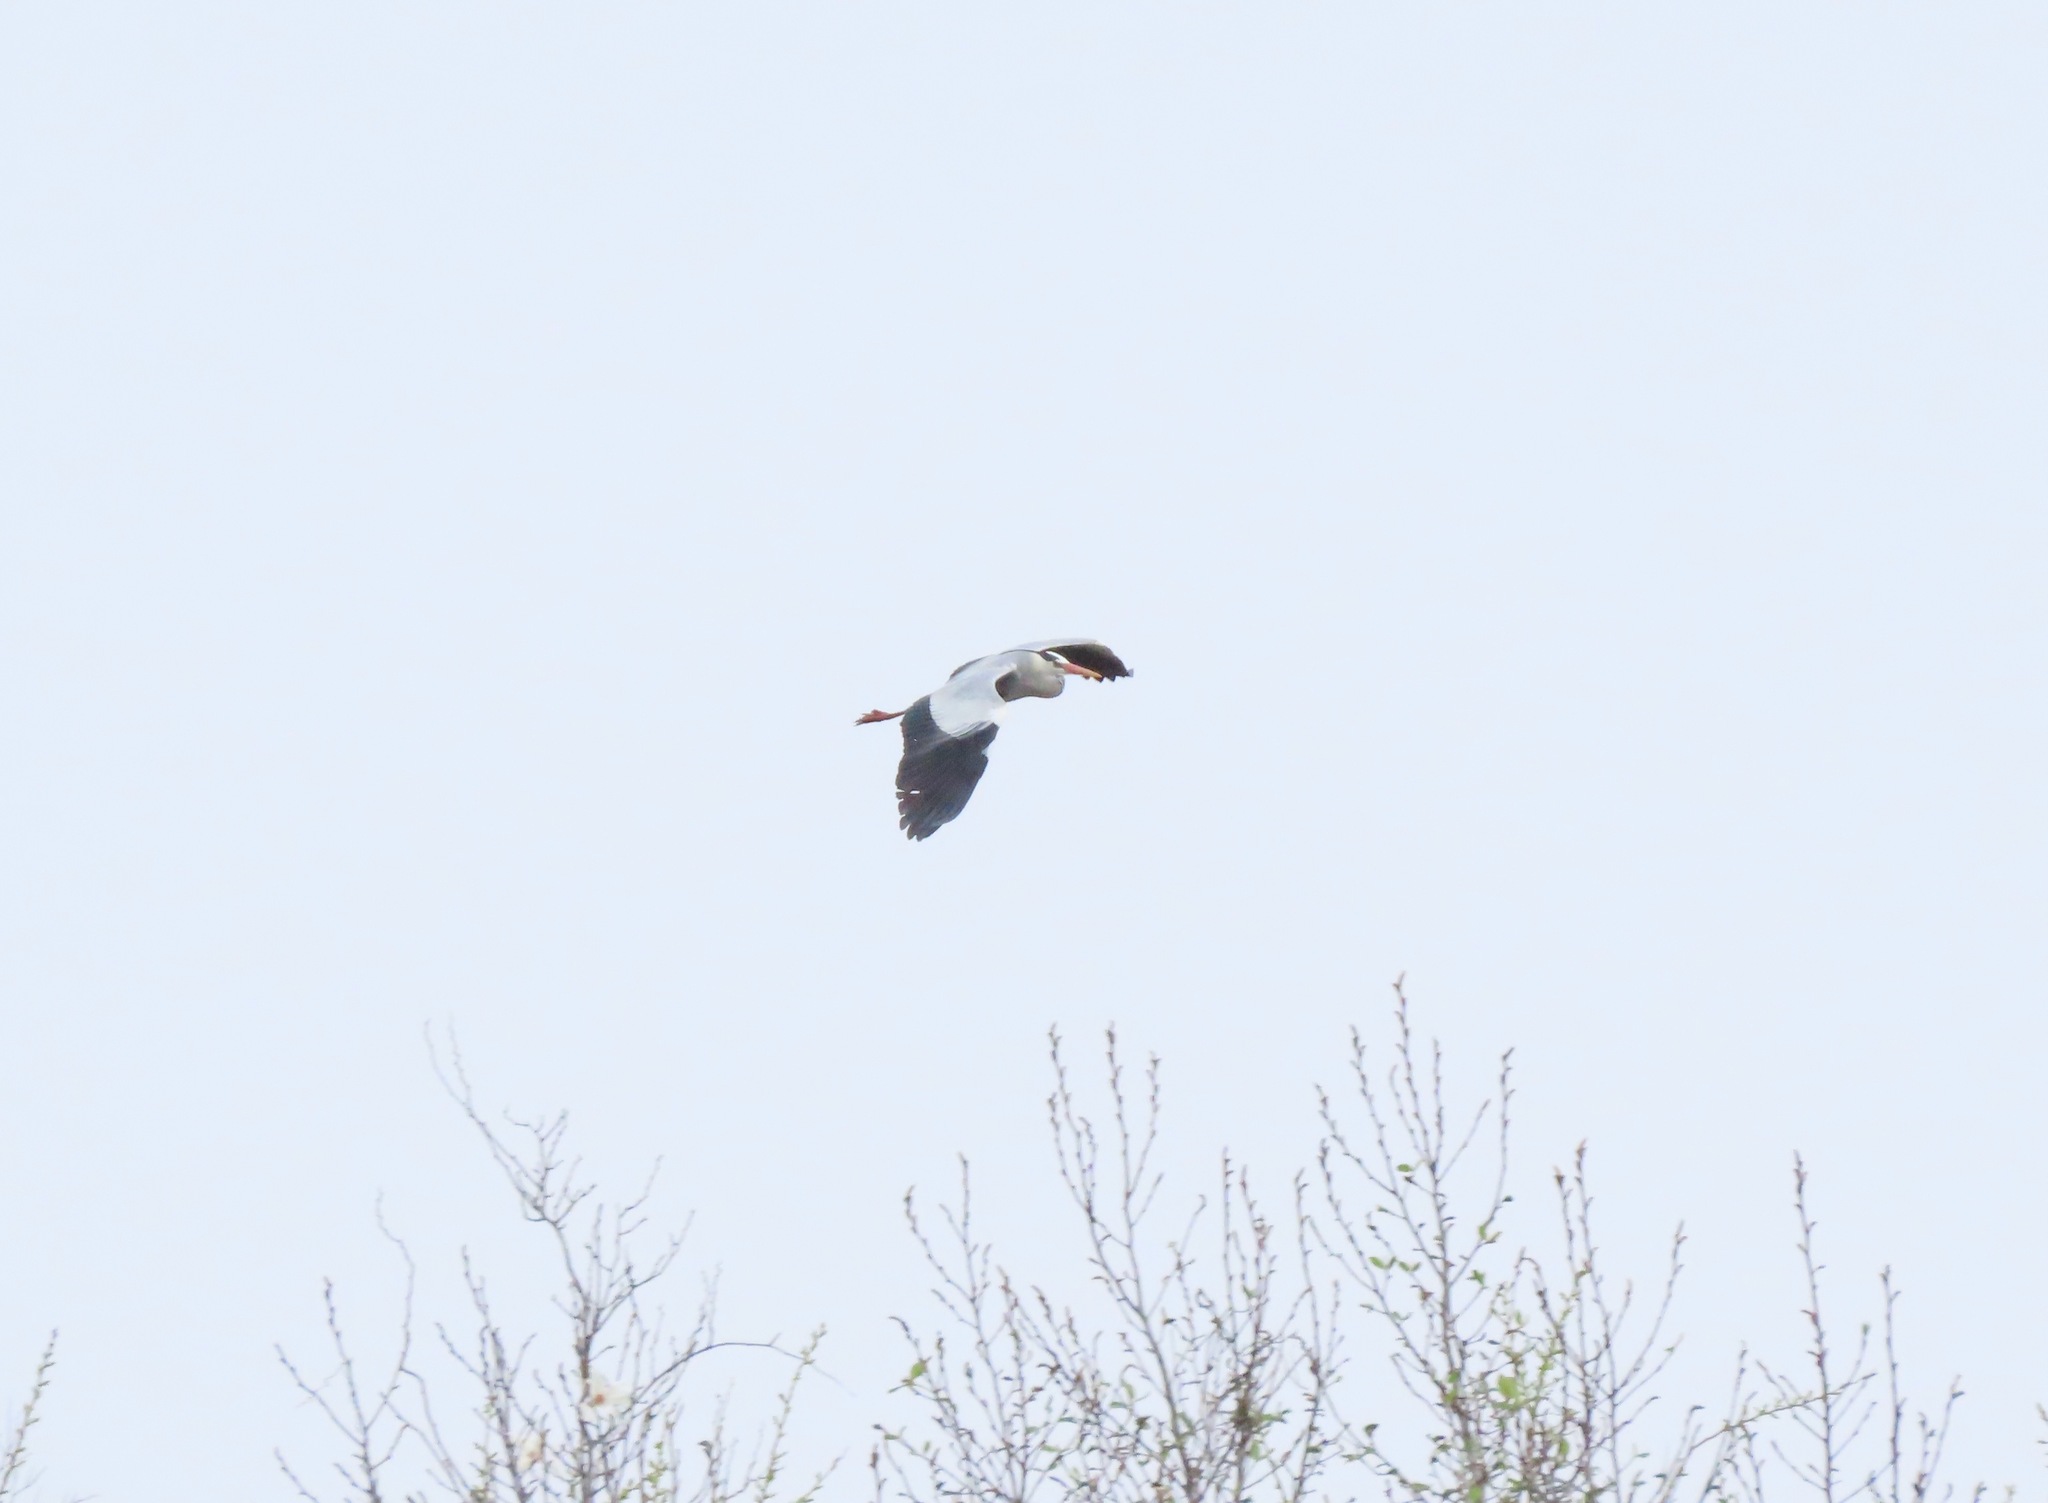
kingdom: Animalia
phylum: Chordata
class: Aves
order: Pelecaniformes
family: Ardeidae
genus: Ardea
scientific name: Ardea cinerea
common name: Grey heron
